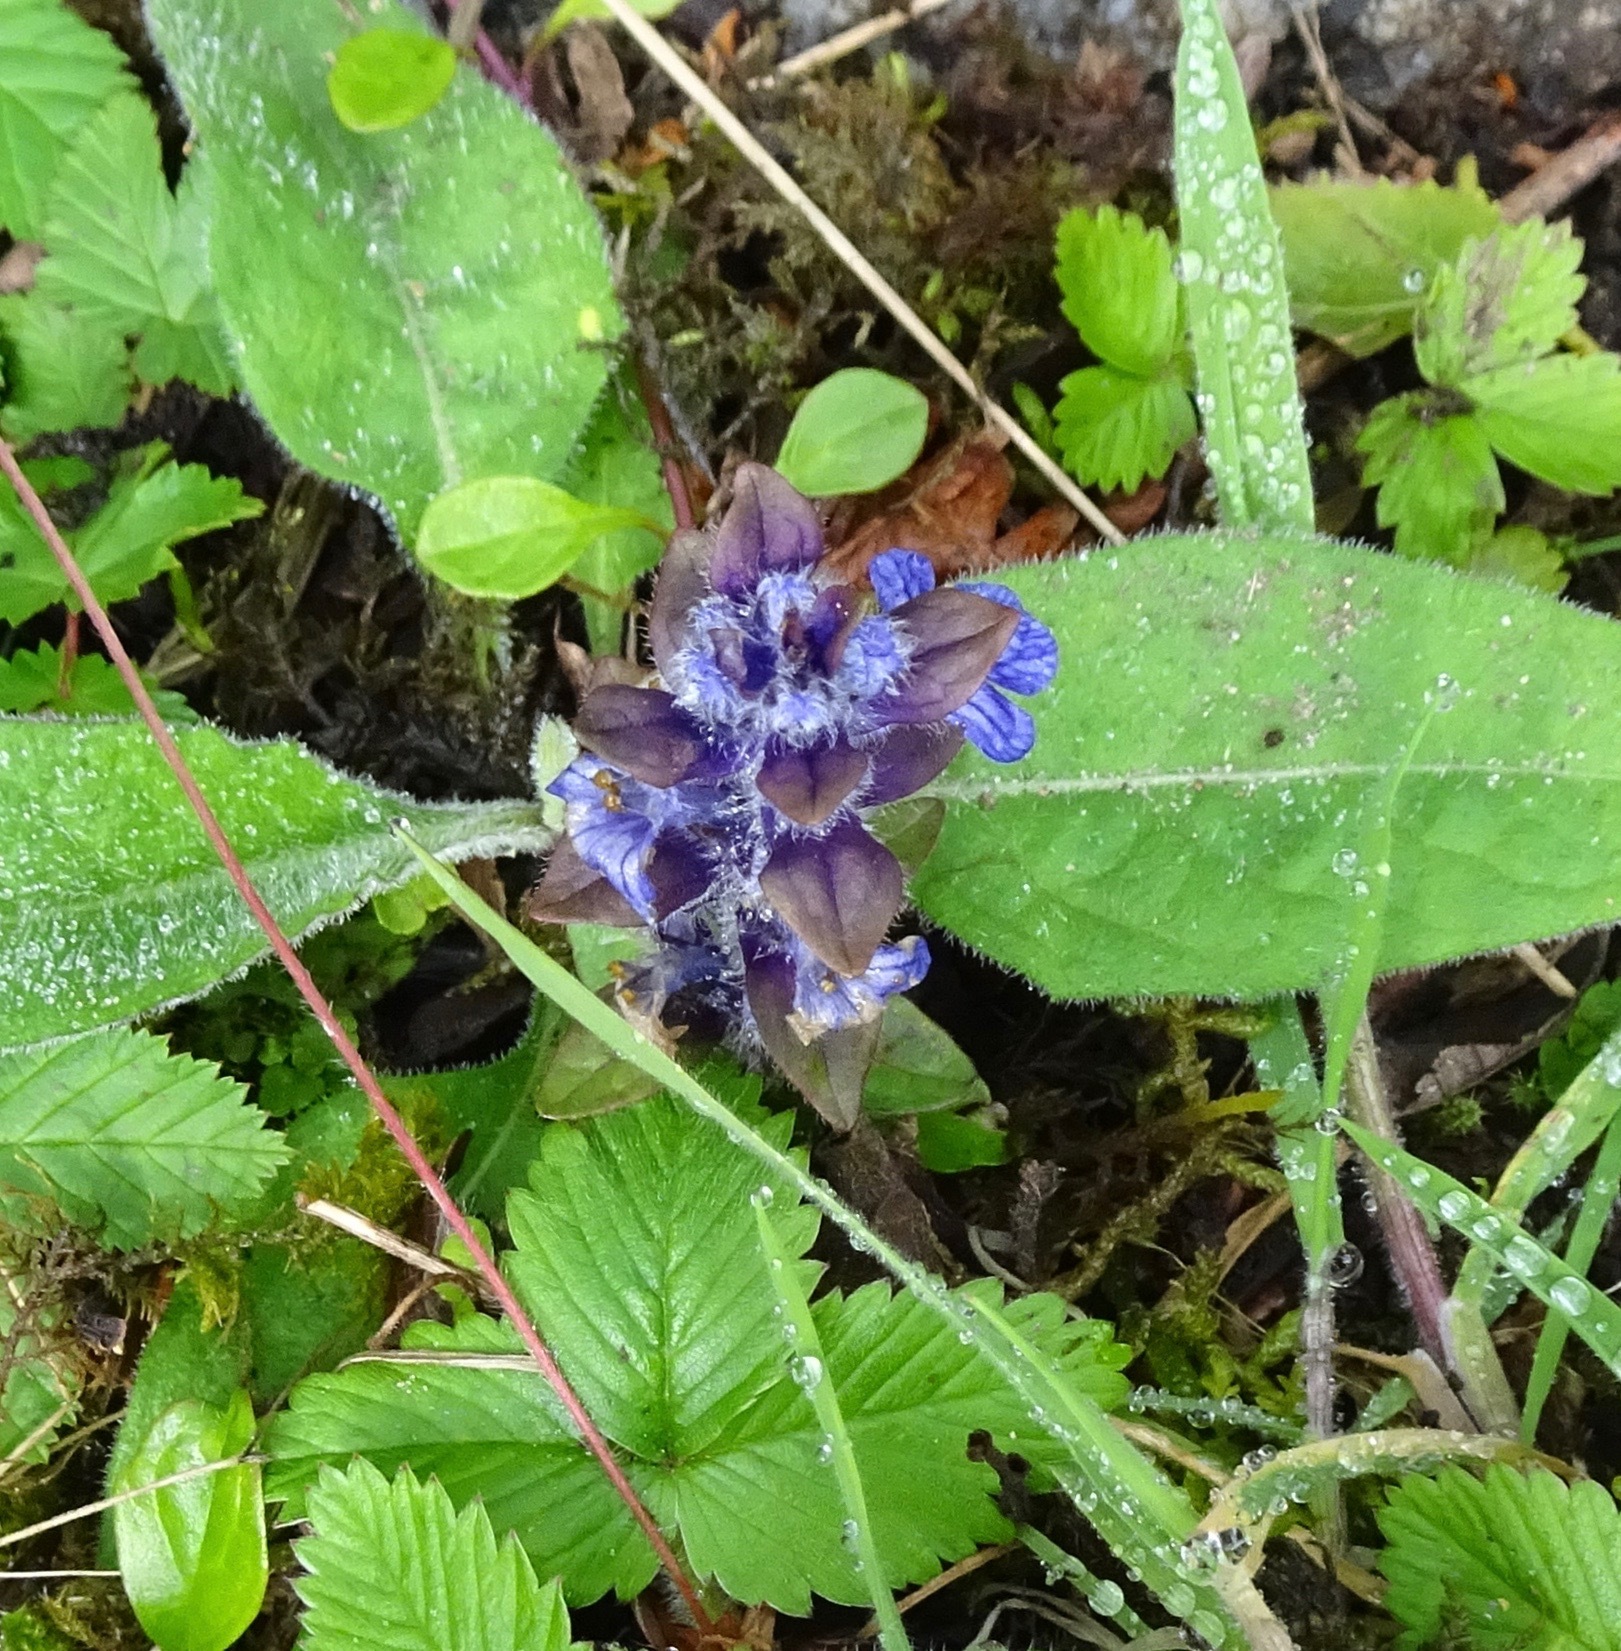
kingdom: Plantae
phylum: Tracheophyta
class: Magnoliopsida
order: Lamiales
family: Lamiaceae
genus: Ajuga
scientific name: Ajuga reptans
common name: Bugle
